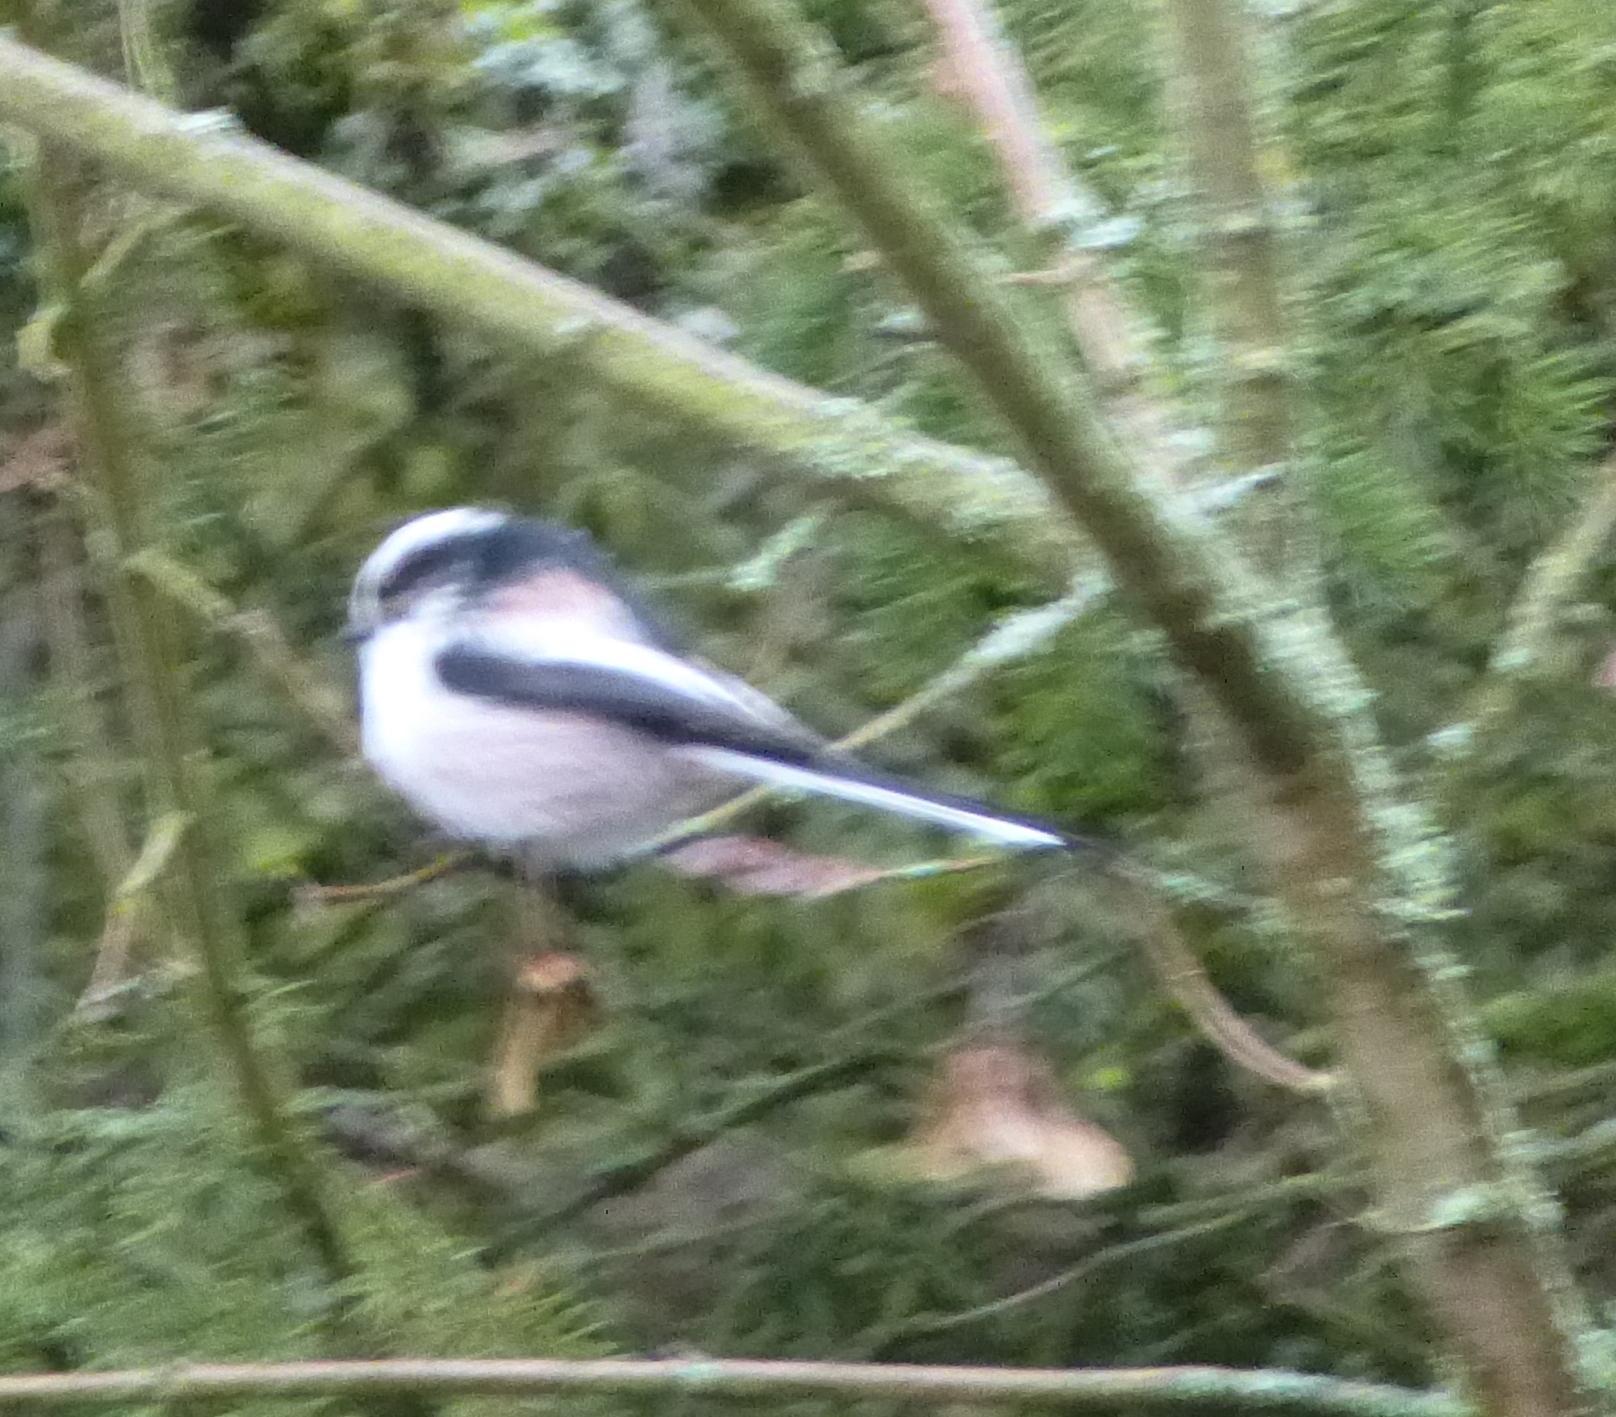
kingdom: Animalia
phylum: Chordata
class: Aves
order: Passeriformes
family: Aegithalidae
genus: Aegithalos
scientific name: Aegithalos caudatus
